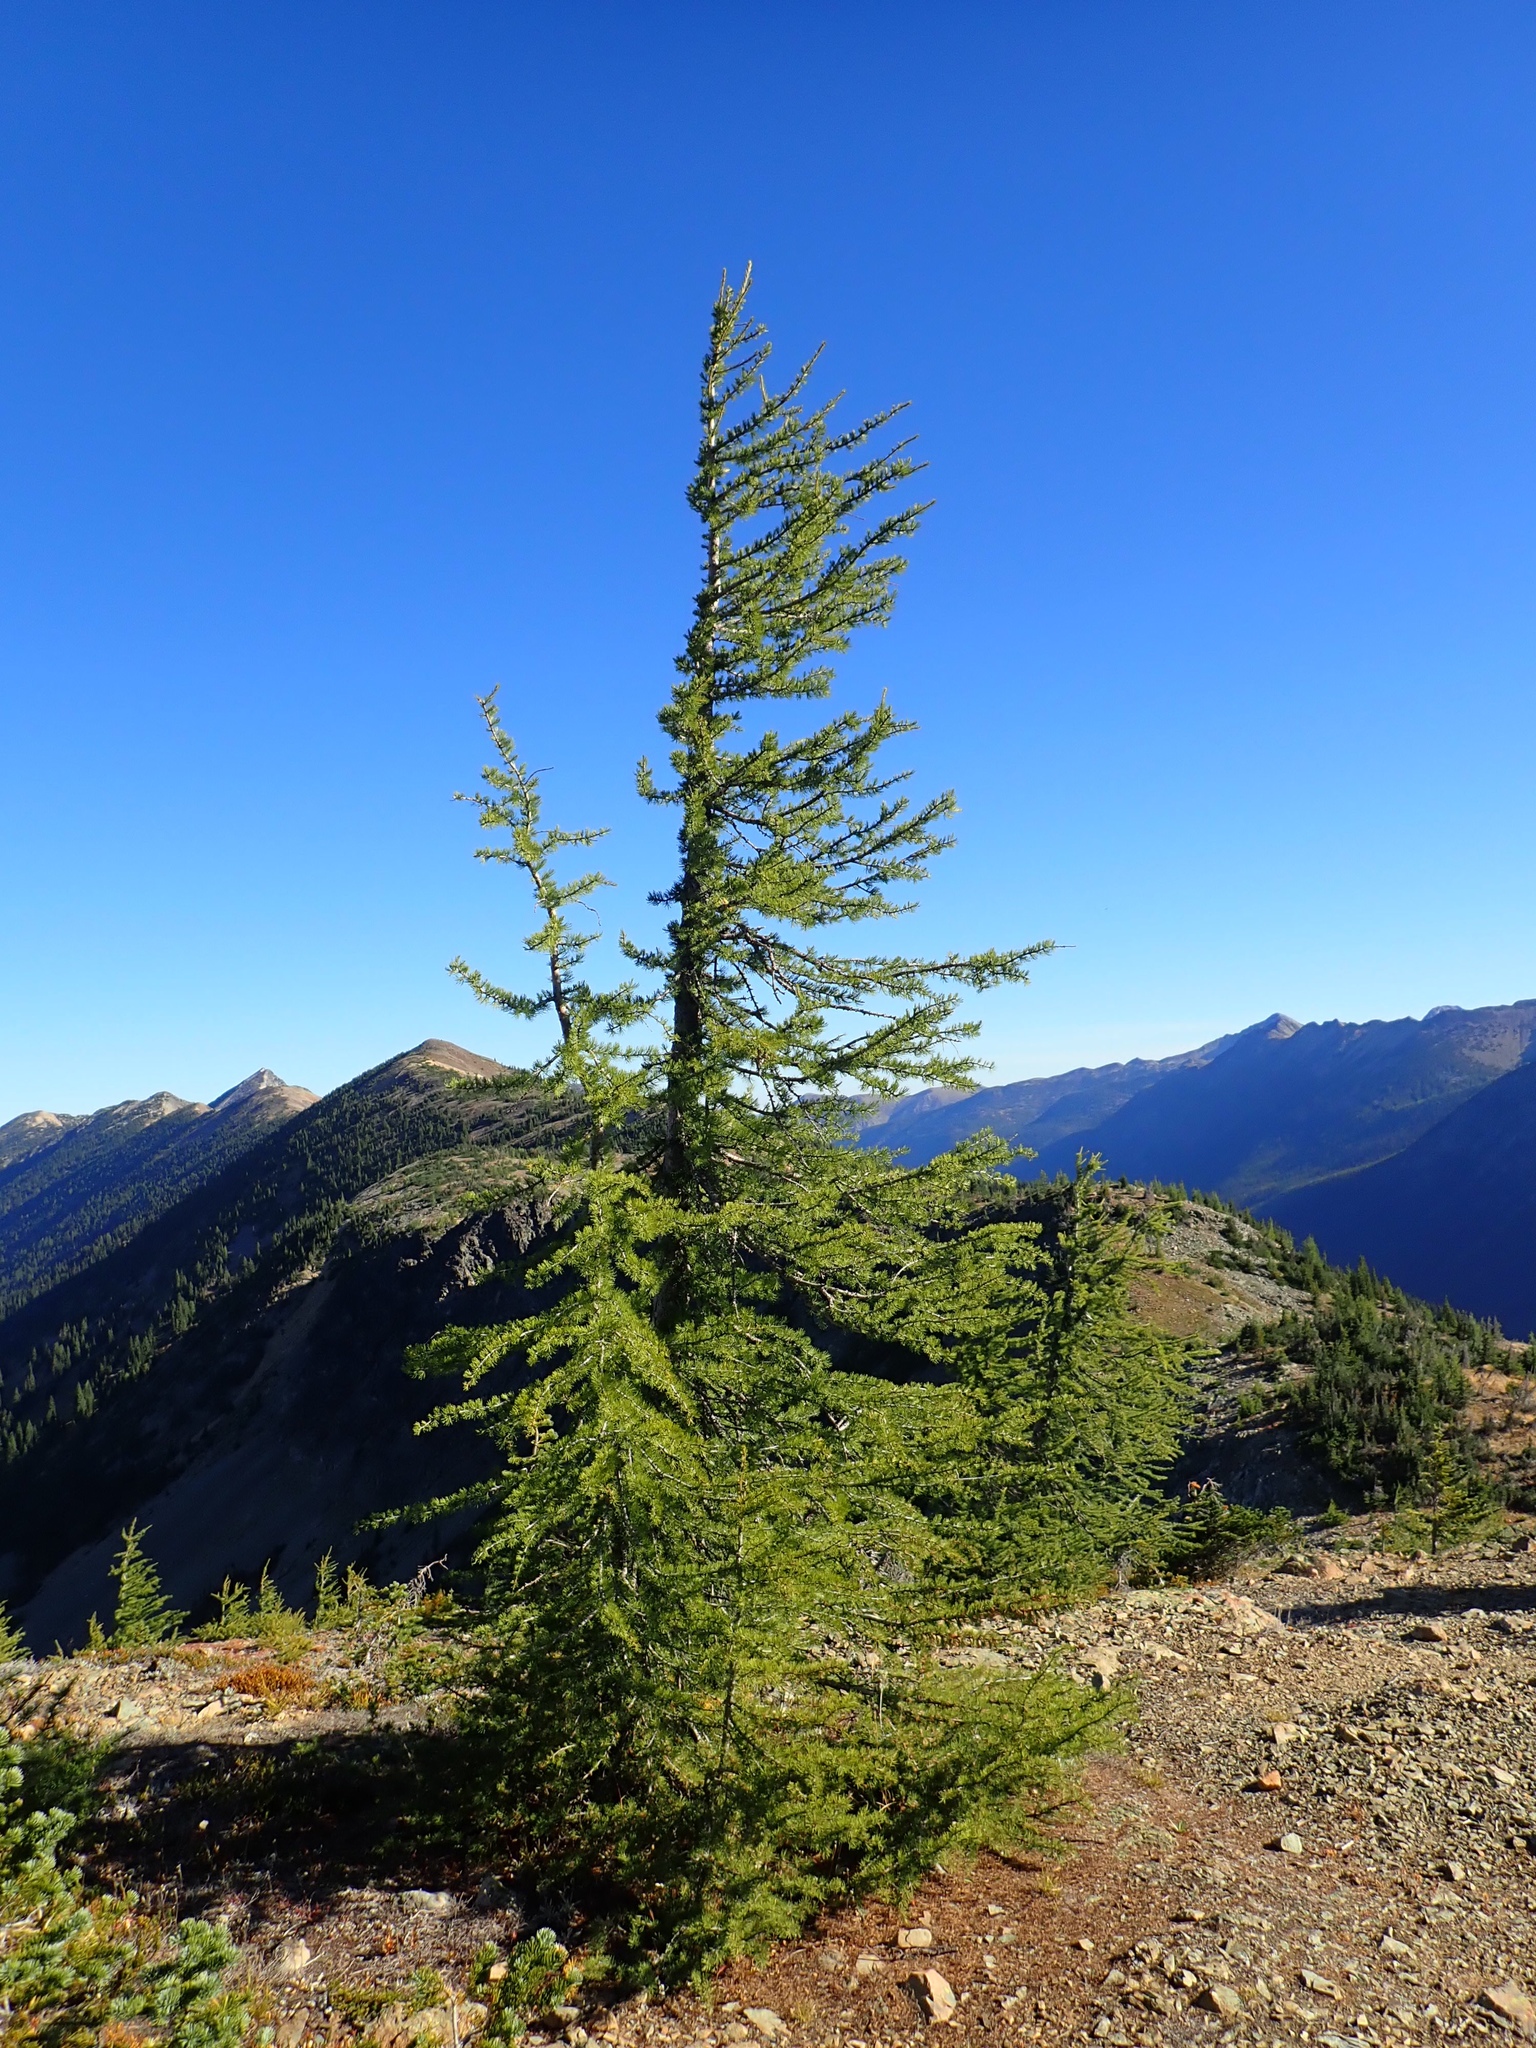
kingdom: Plantae
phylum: Tracheophyta
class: Pinopsida
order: Pinales
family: Pinaceae
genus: Larix
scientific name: Larix lyallii
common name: Alpine larch
